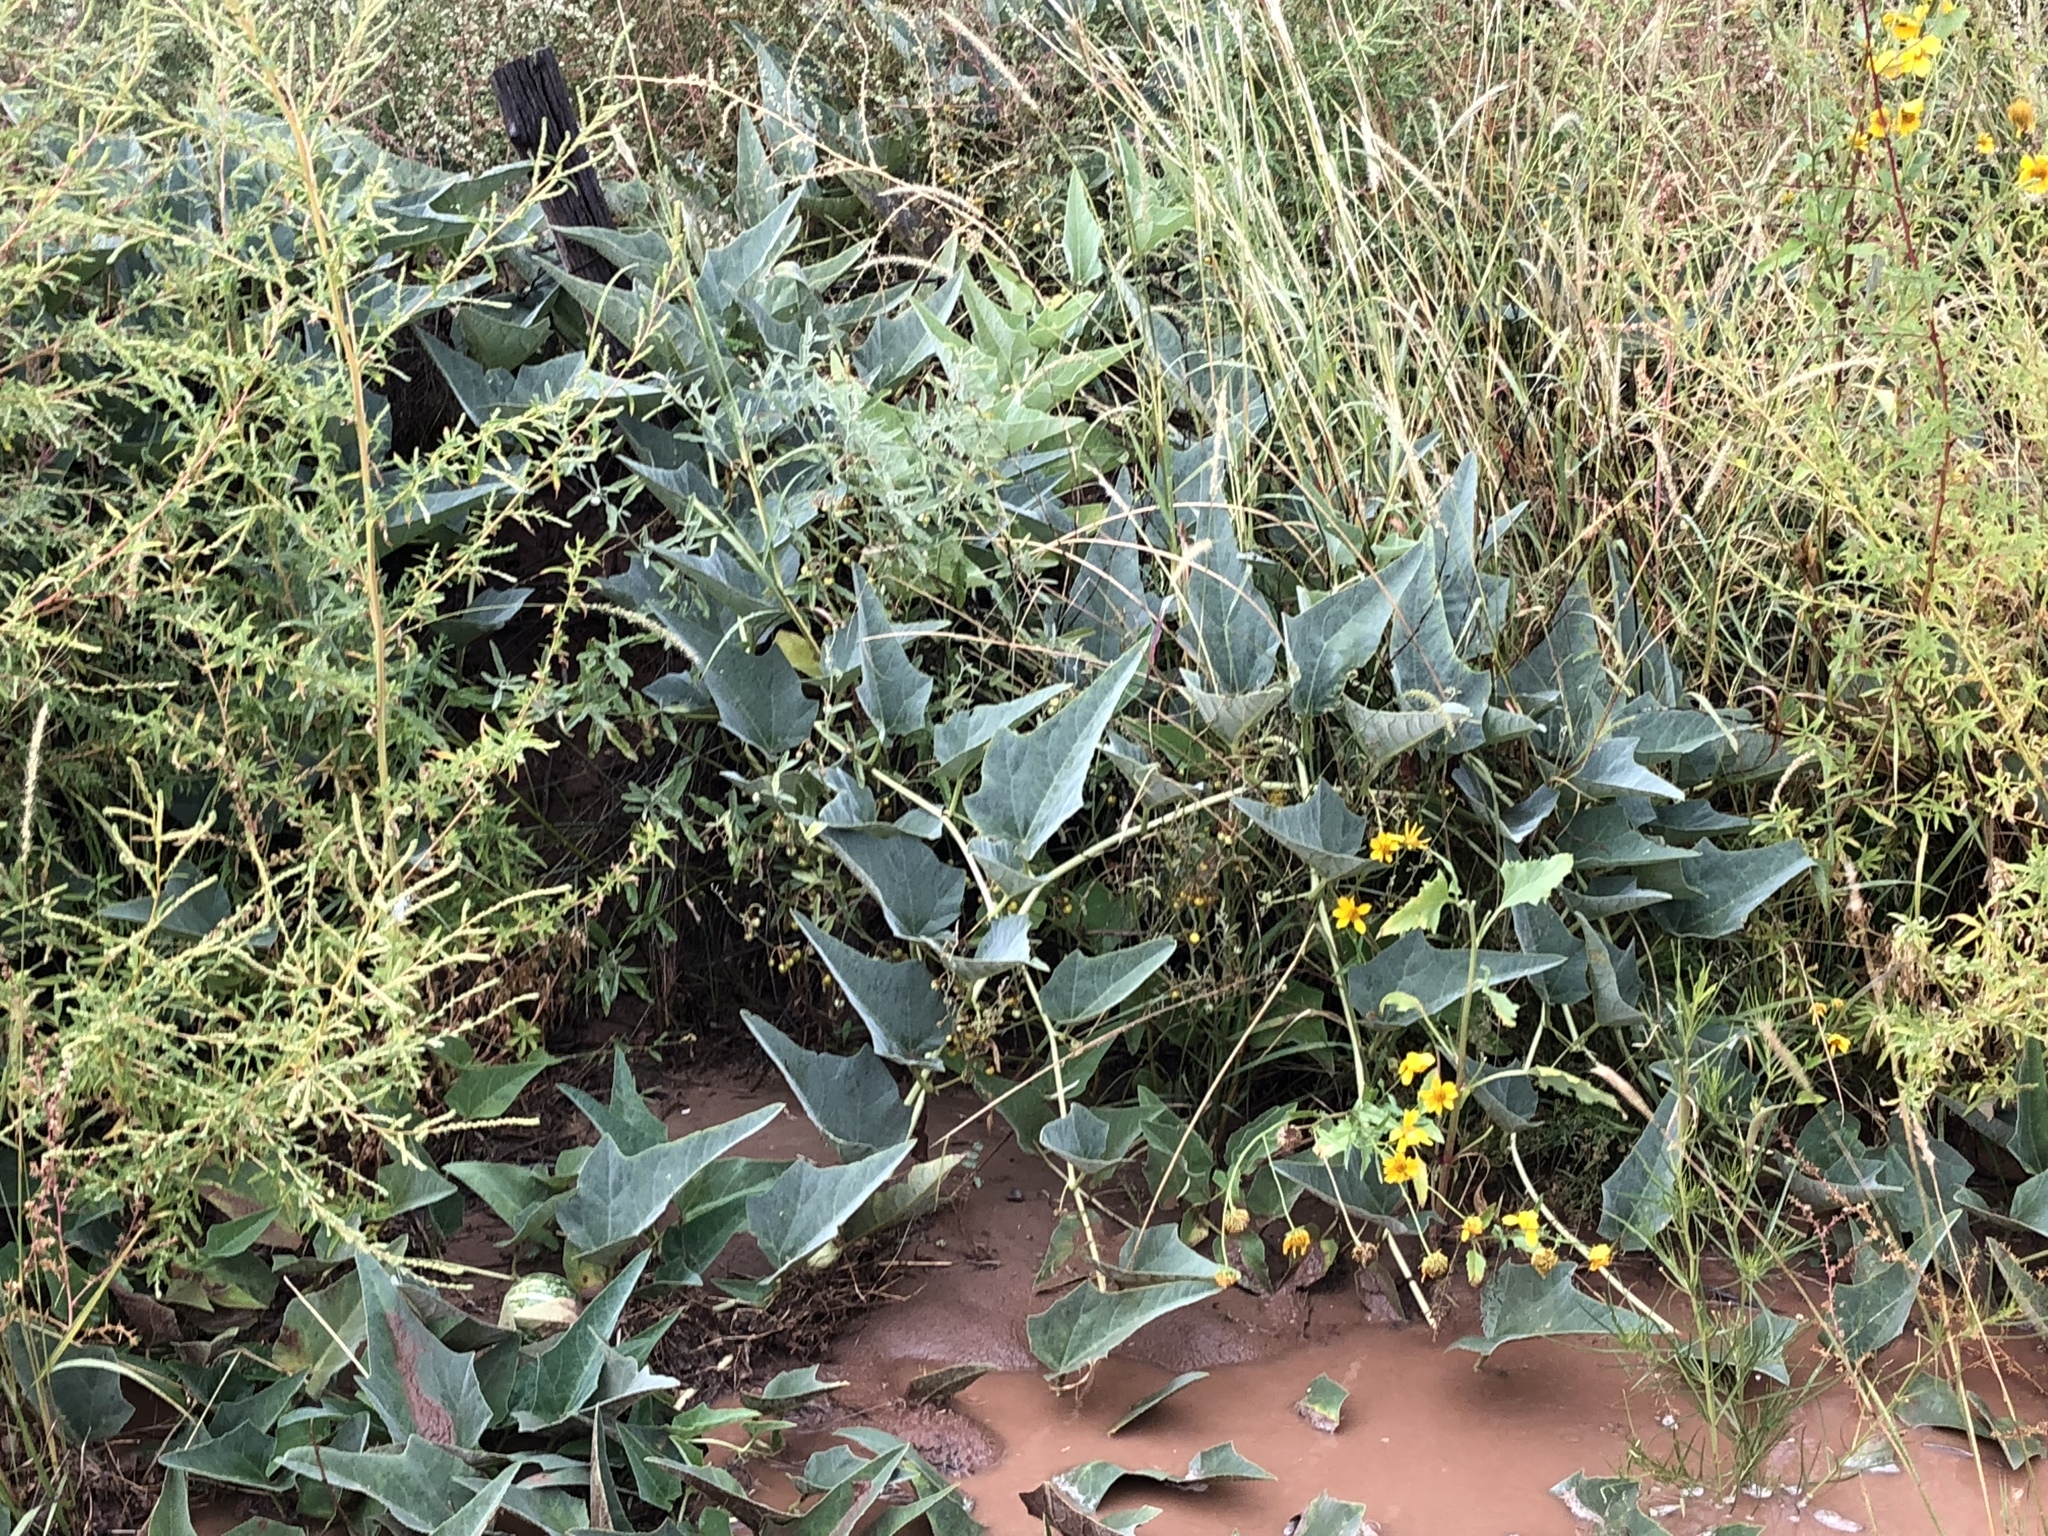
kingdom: Plantae
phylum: Tracheophyta
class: Magnoliopsida
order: Cucurbitales
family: Cucurbitaceae
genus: Cucurbita
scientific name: Cucurbita foetidissima
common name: Buffalo gourd
